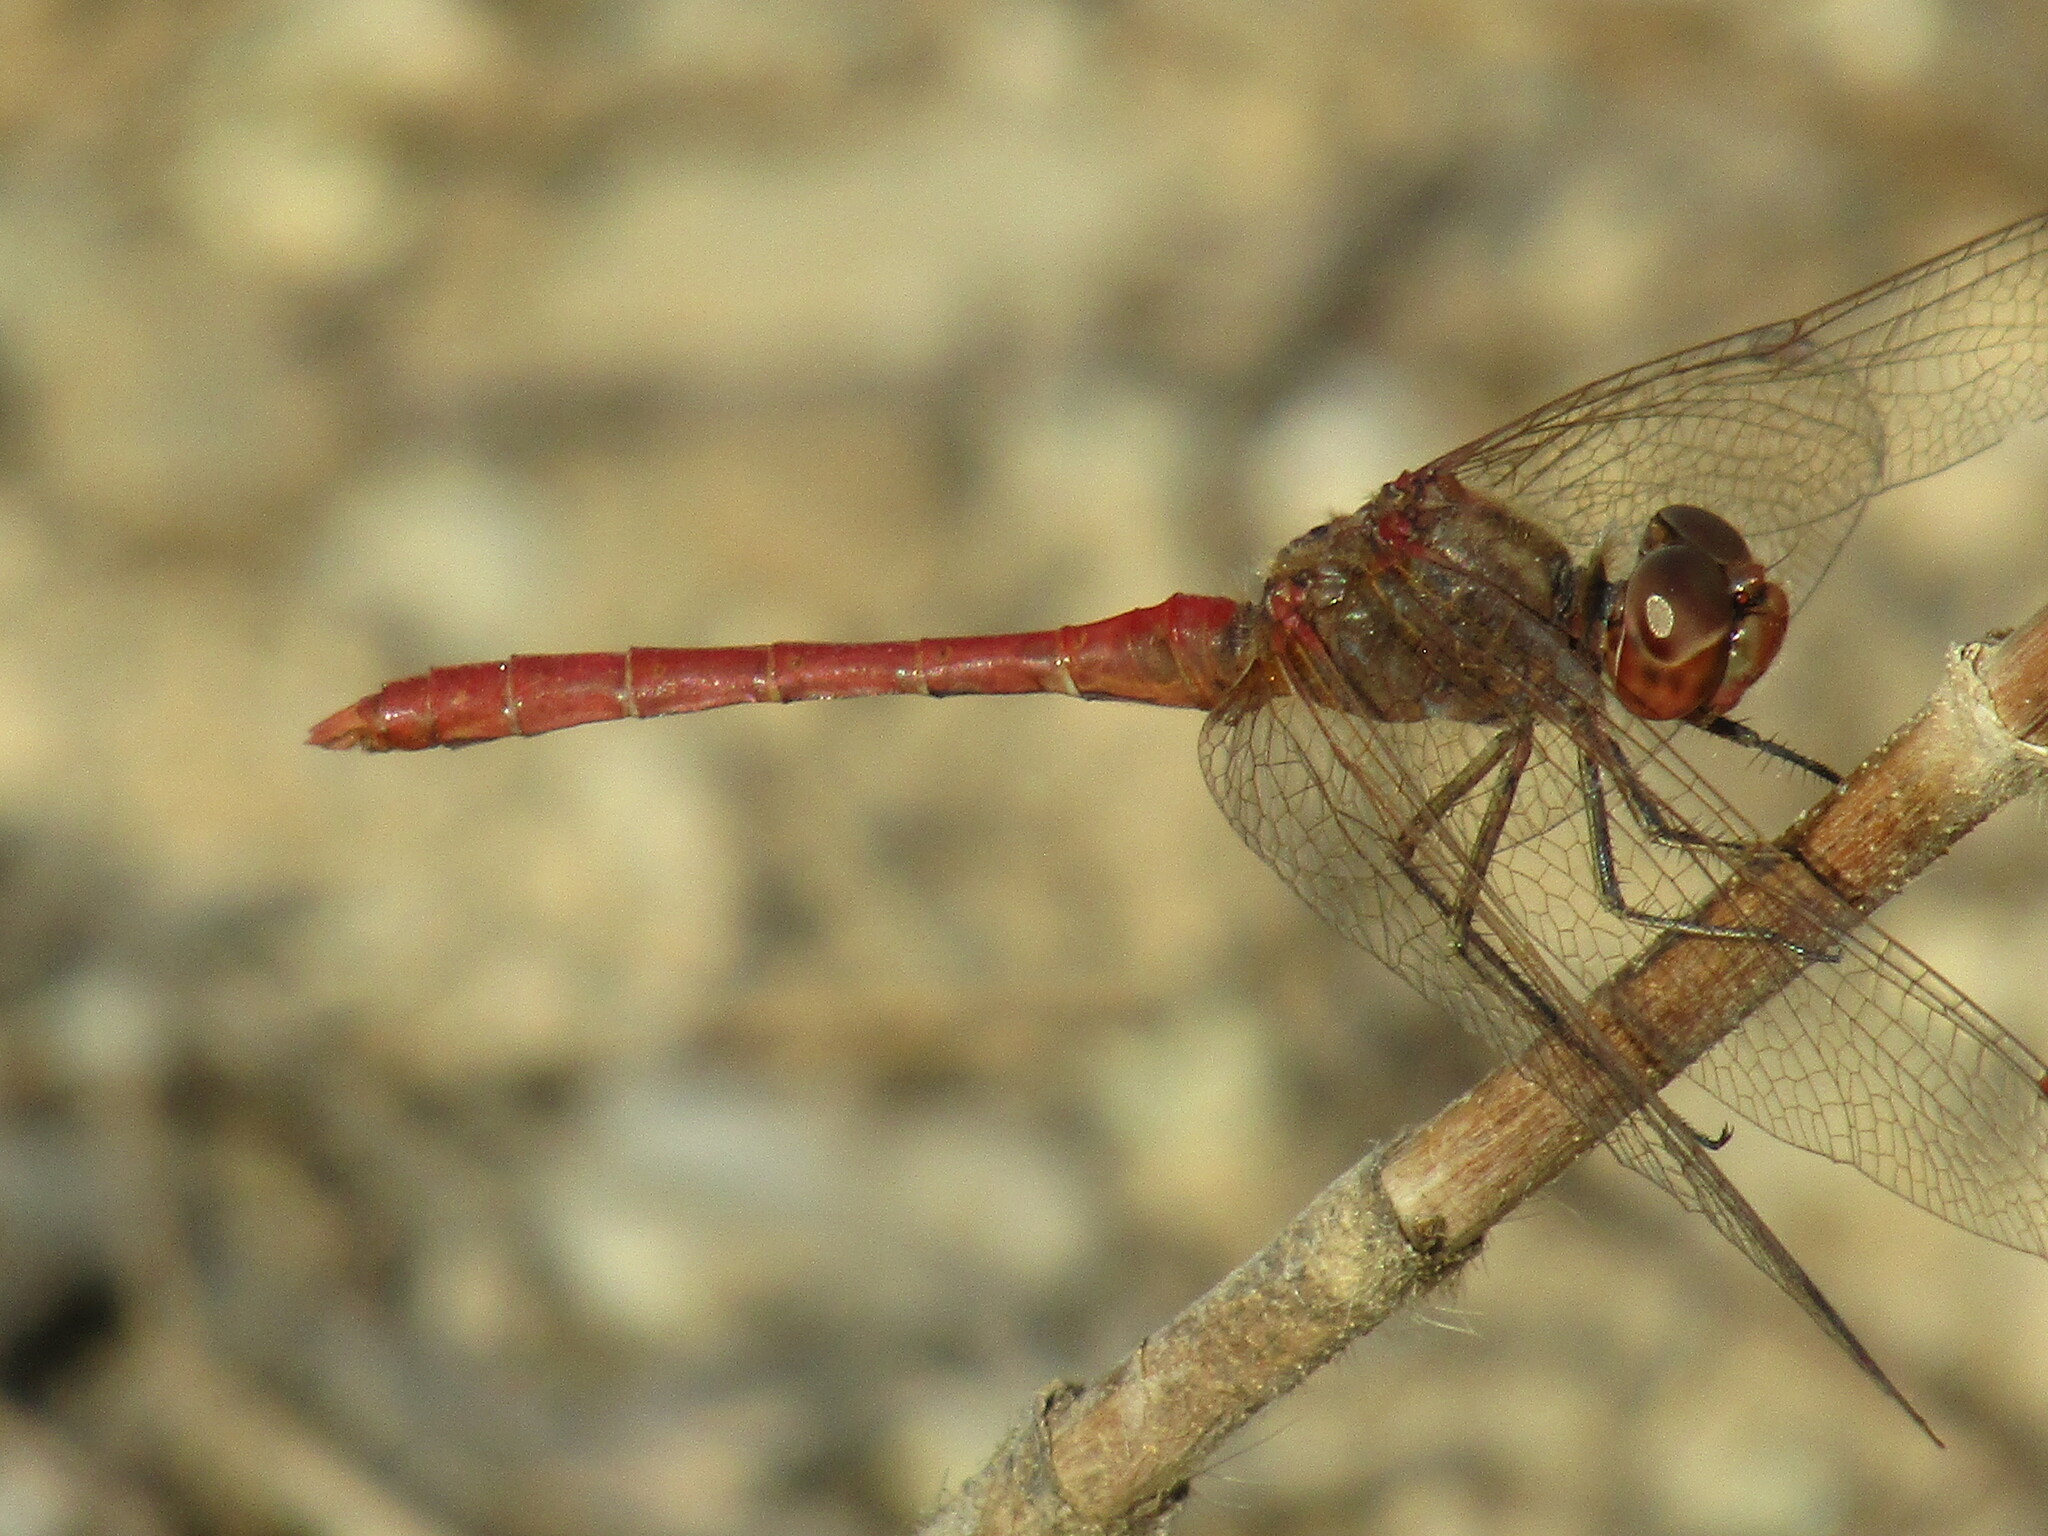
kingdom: Animalia
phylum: Arthropoda
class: Insecta
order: Odonata
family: Libellulidae
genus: Sympetrum
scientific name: Sympetrum meridionale
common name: Southern darter
